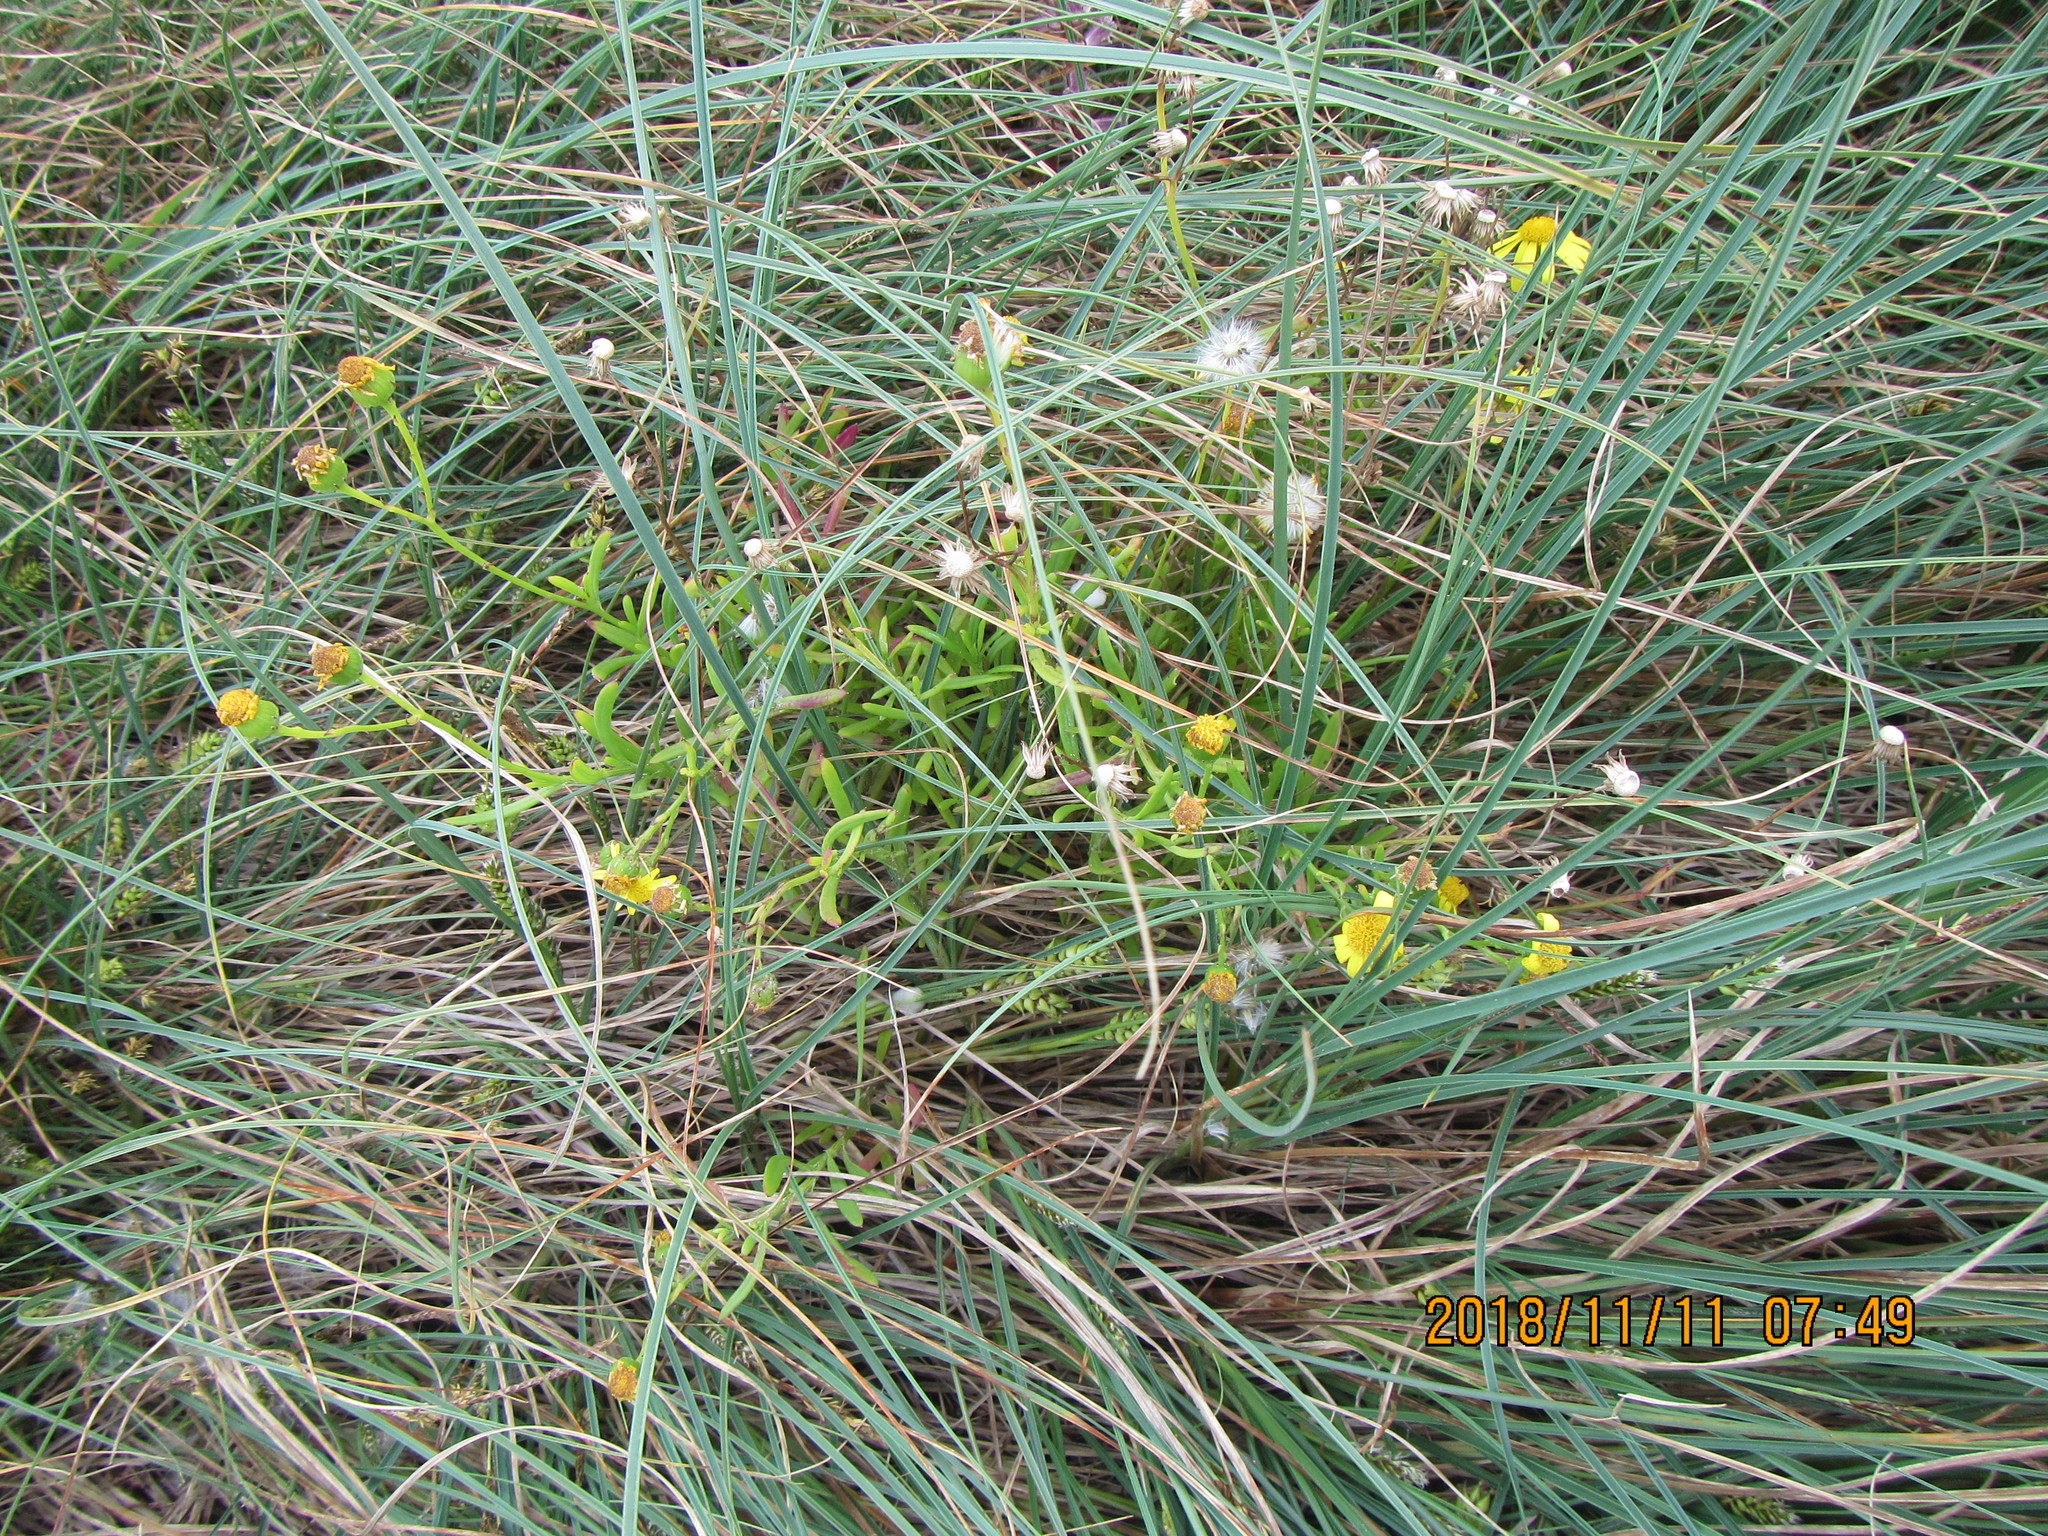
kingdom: Plantae
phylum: Tracheophyta
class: Magnoliopsida
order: Asterales
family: Asteraceae
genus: Senecio
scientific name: Senecio skirrhodon
